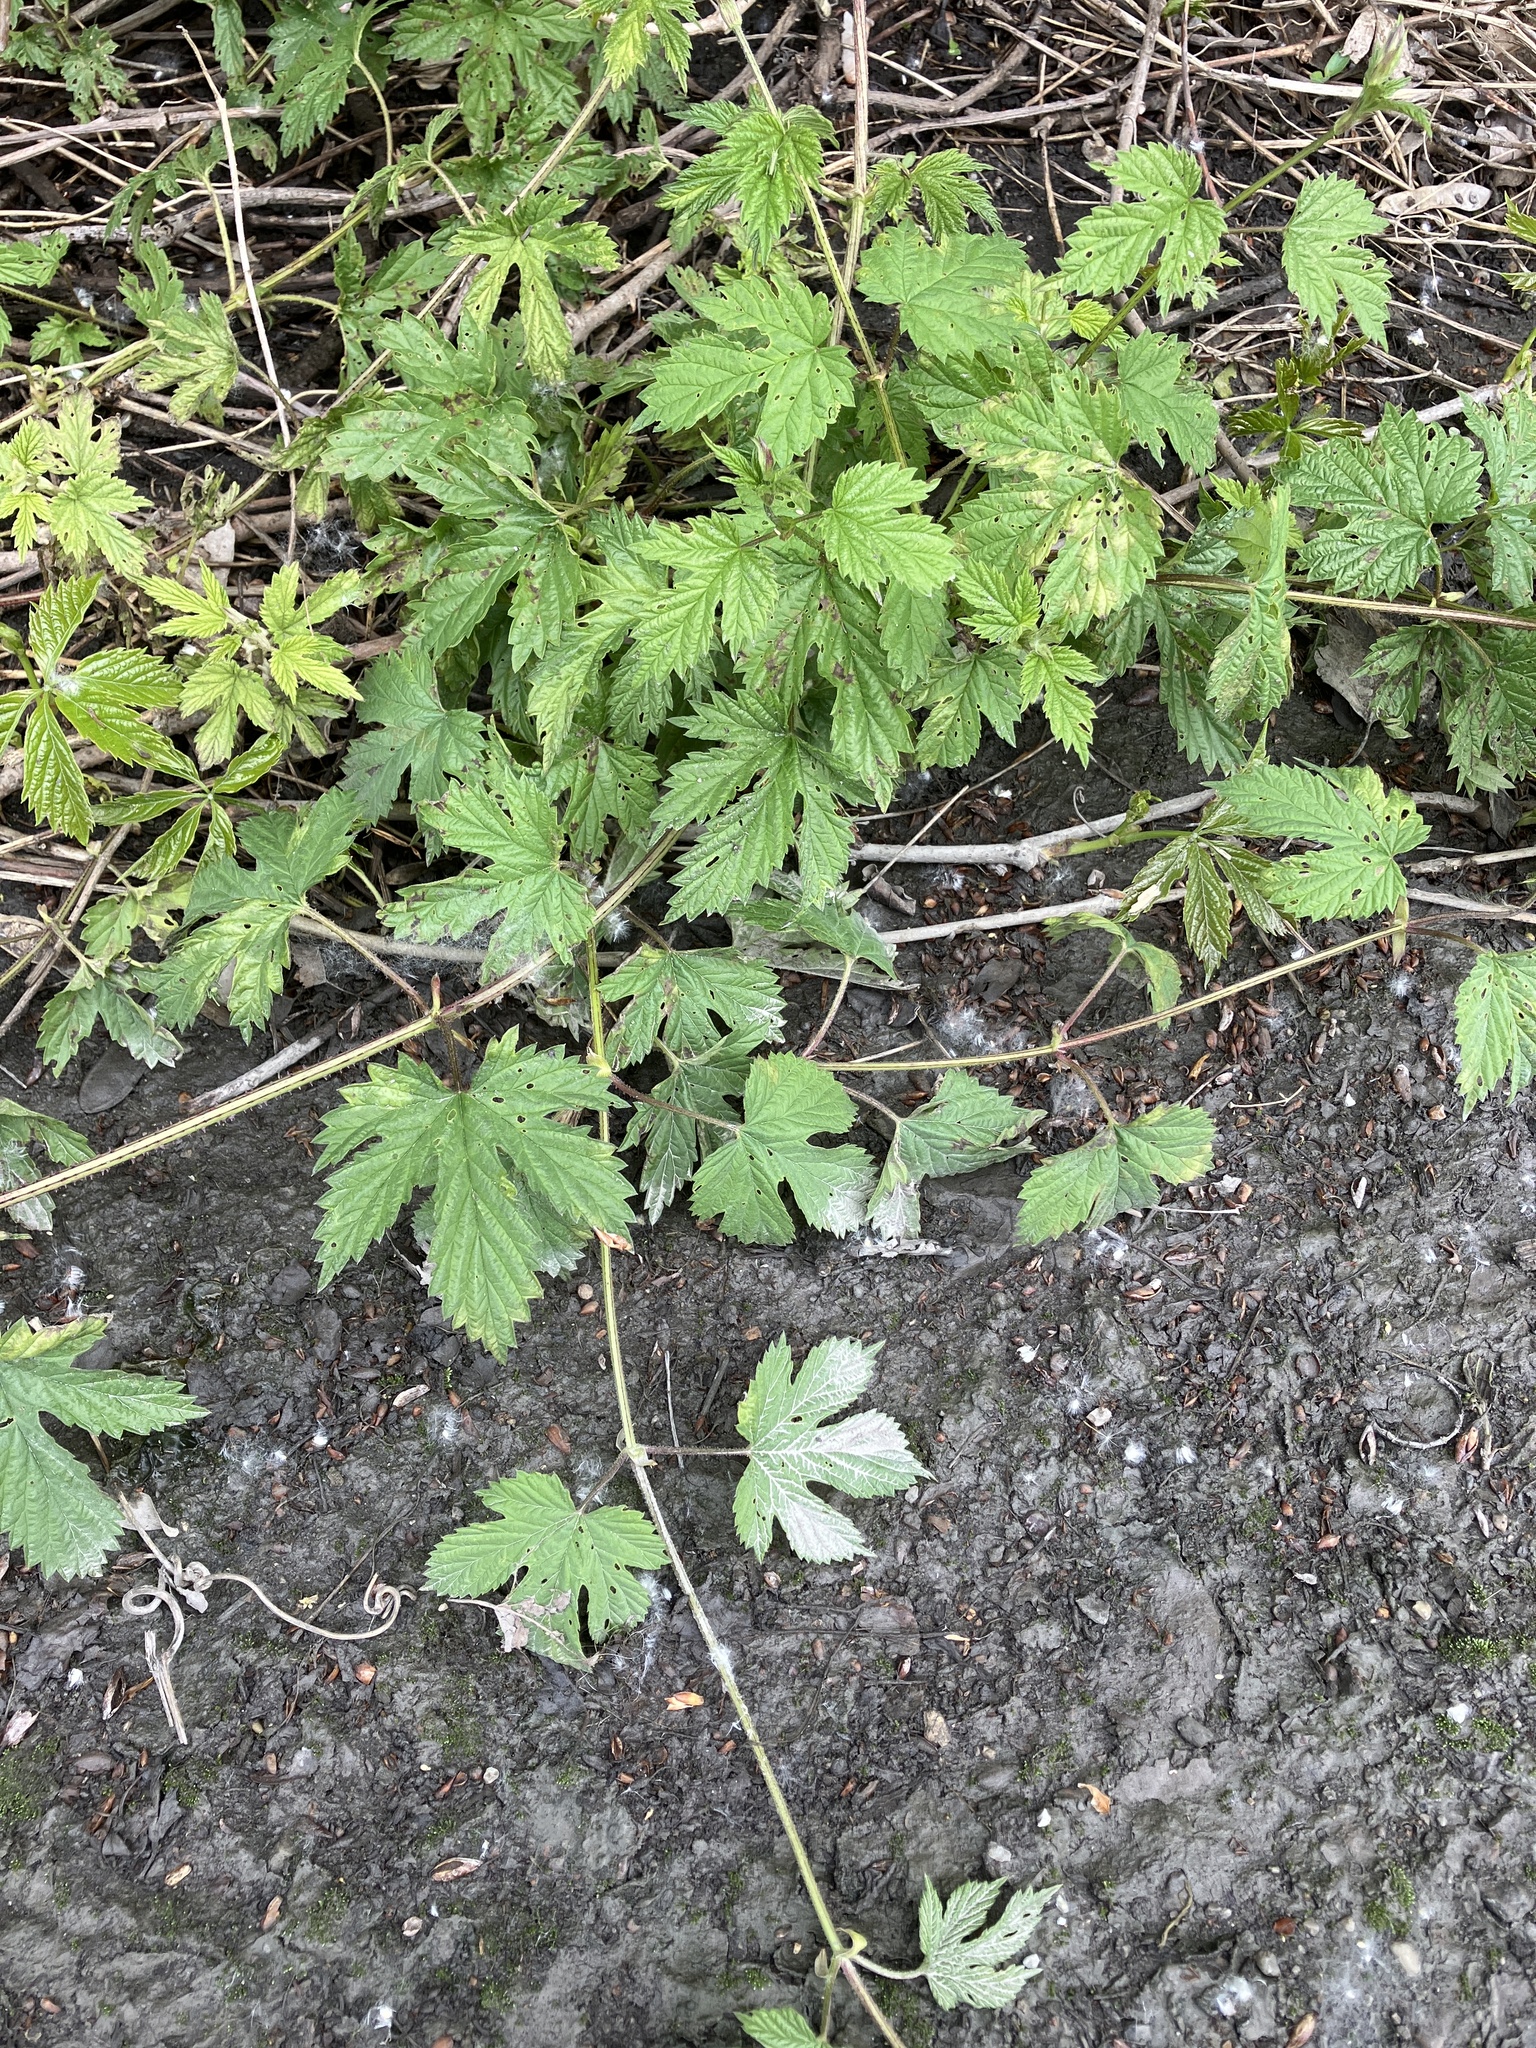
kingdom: Plantae
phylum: Tracheophyta
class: Magnoliopsida
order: Rosales
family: Cannabaceae
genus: Humulus
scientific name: Humulus lupulus
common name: Hop
